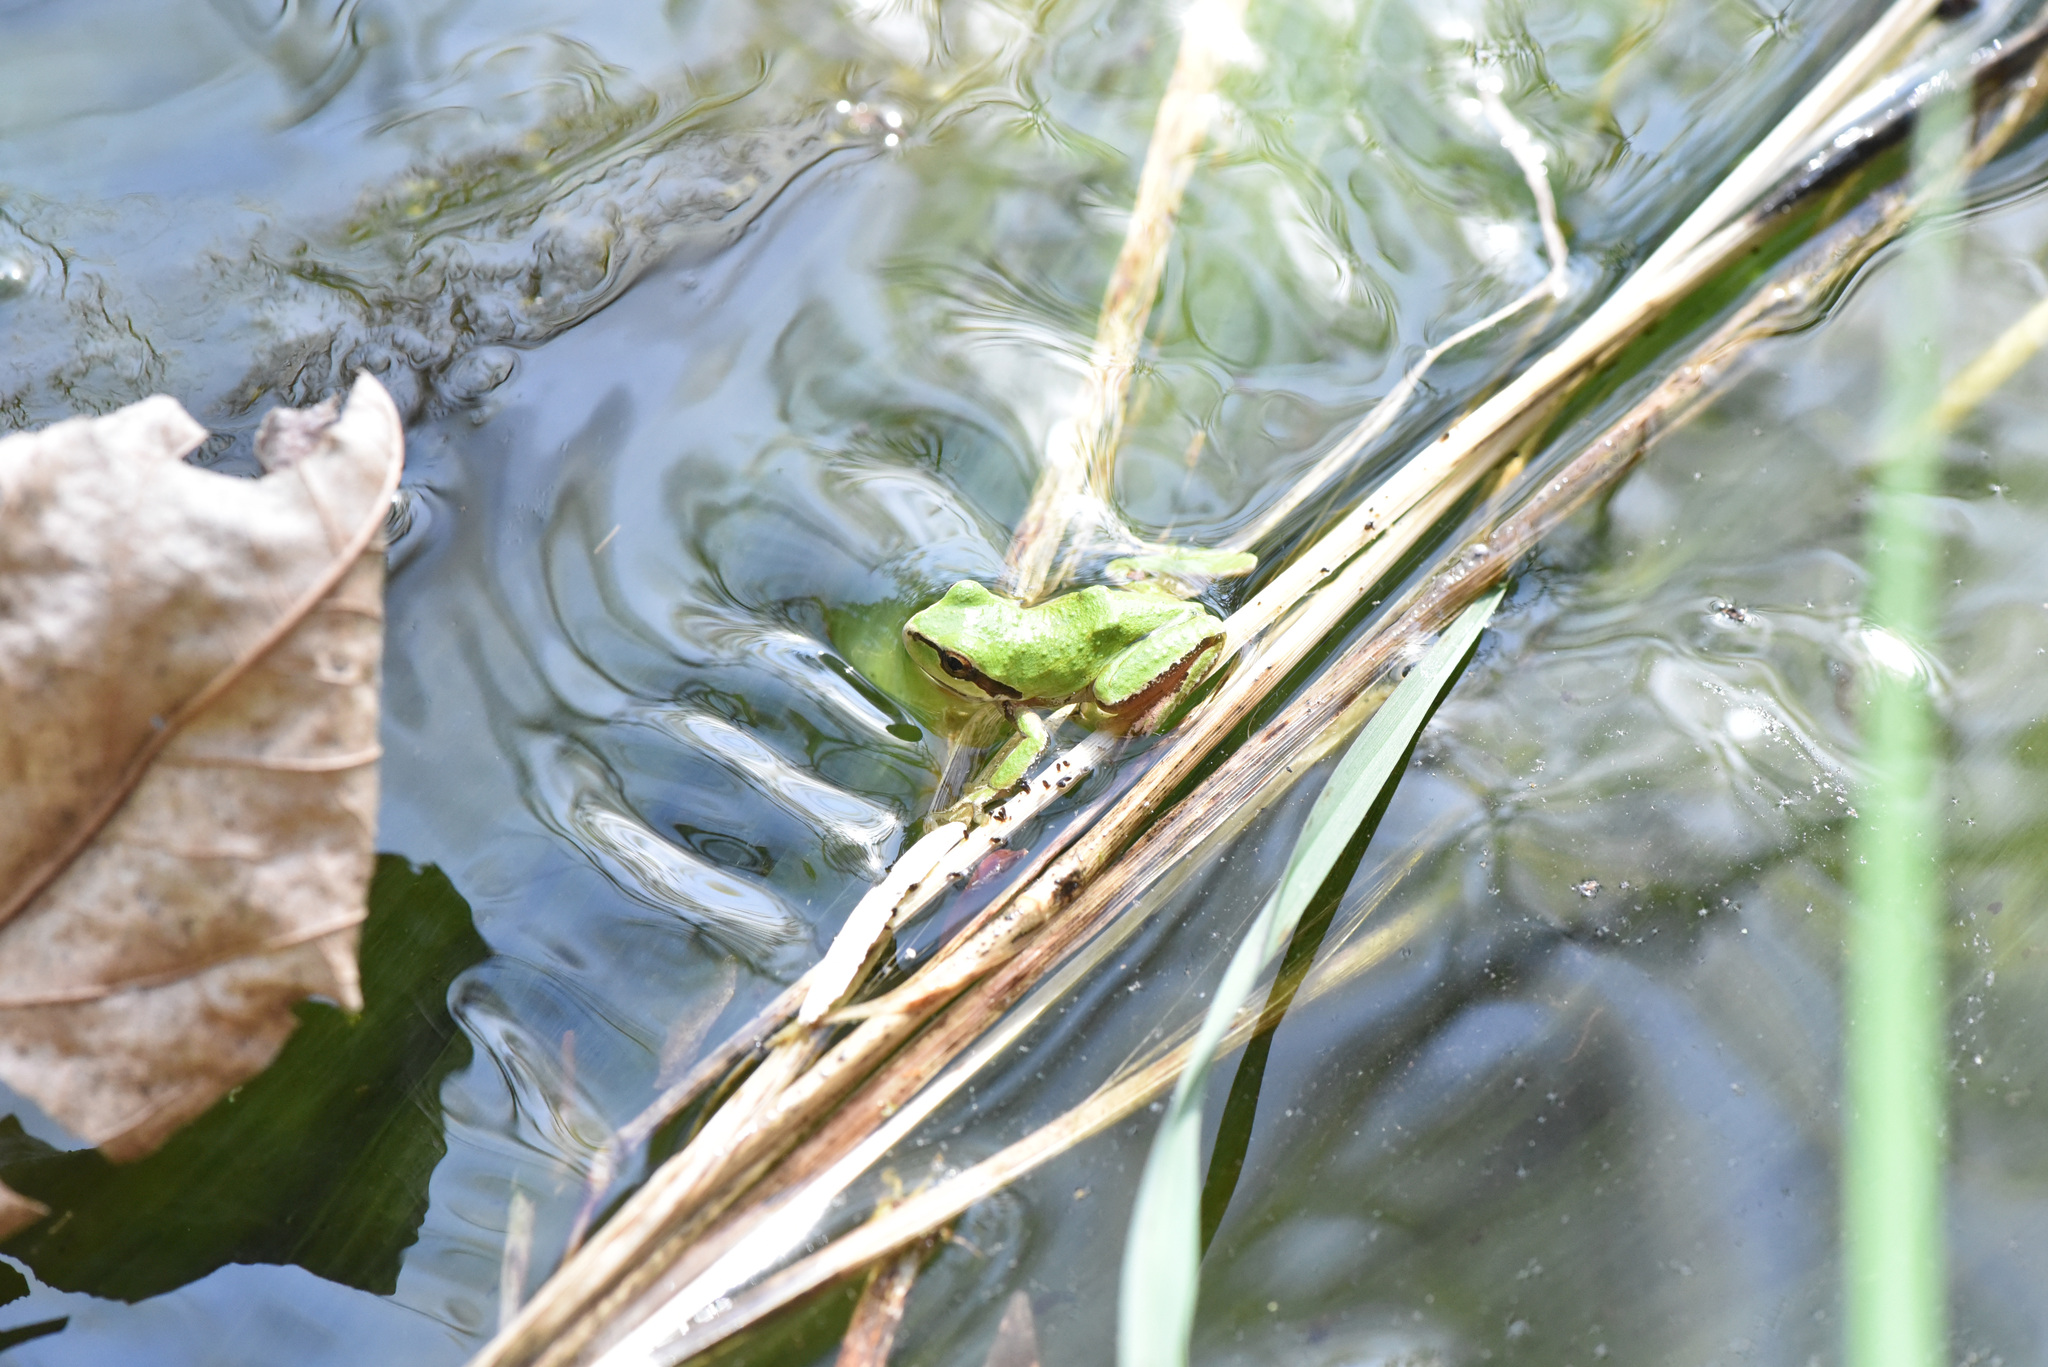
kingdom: Animalia
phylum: Chordata
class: Amphibia
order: Anura
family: Hylidae
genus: Pseudacris
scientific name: Pseudacris regilla
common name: Pacific chorus frog
